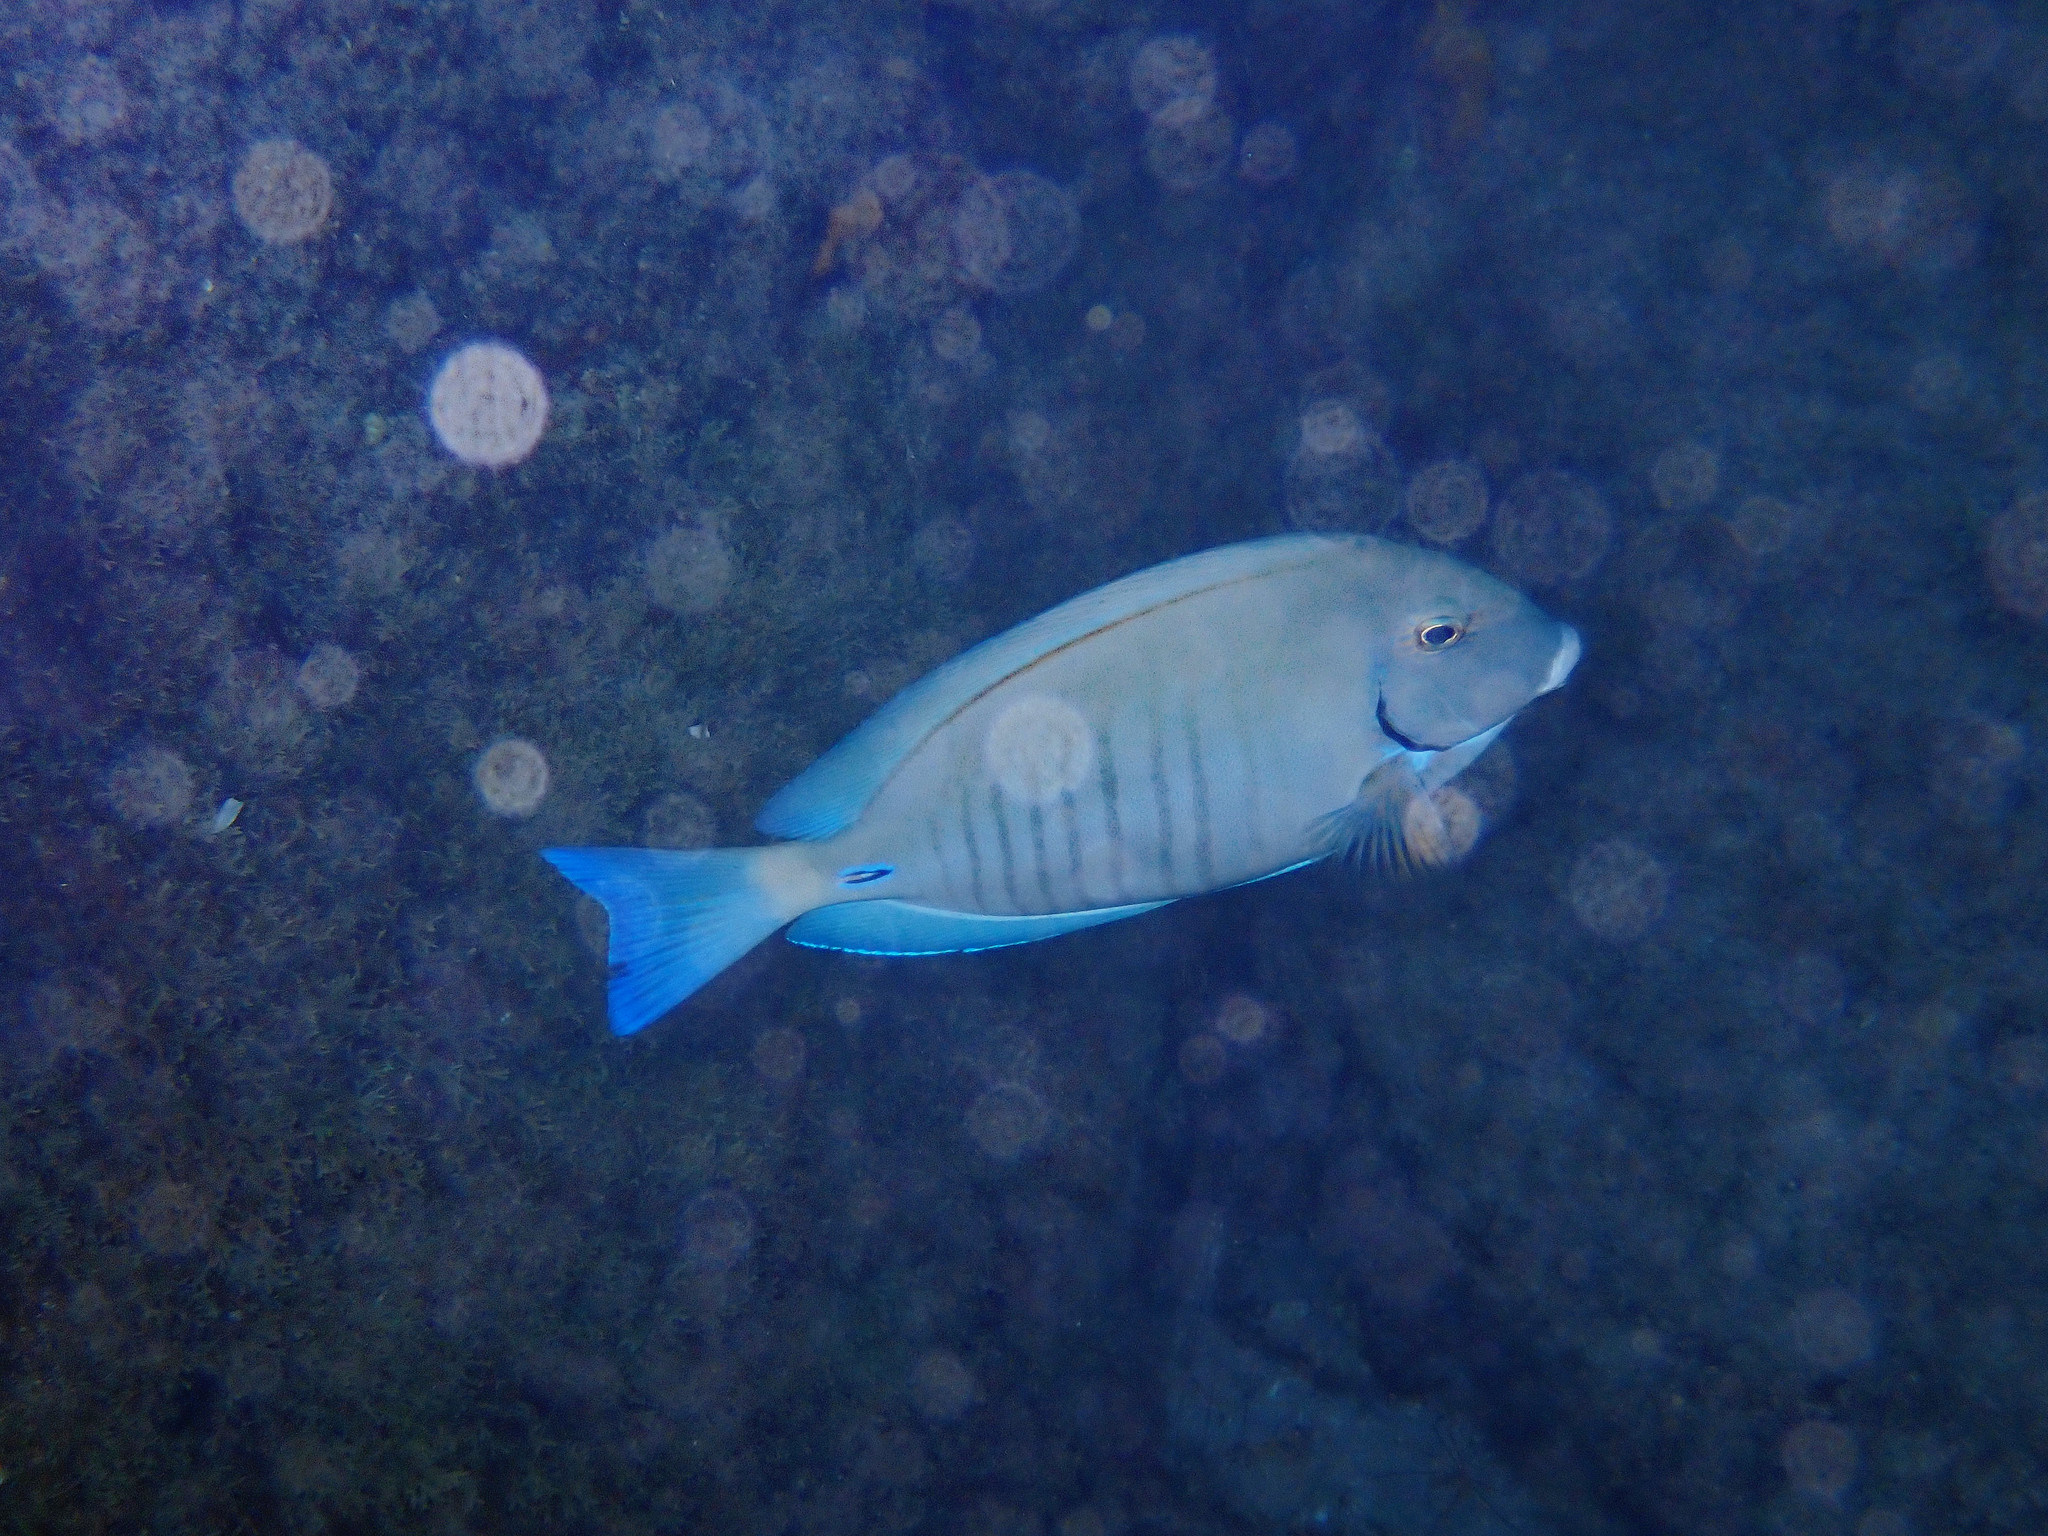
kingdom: Animalia
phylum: Chordata
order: Perciformes
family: Acanthuridae
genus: Acanthurus
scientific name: Acanthurus chirurgus
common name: Doctorfish
